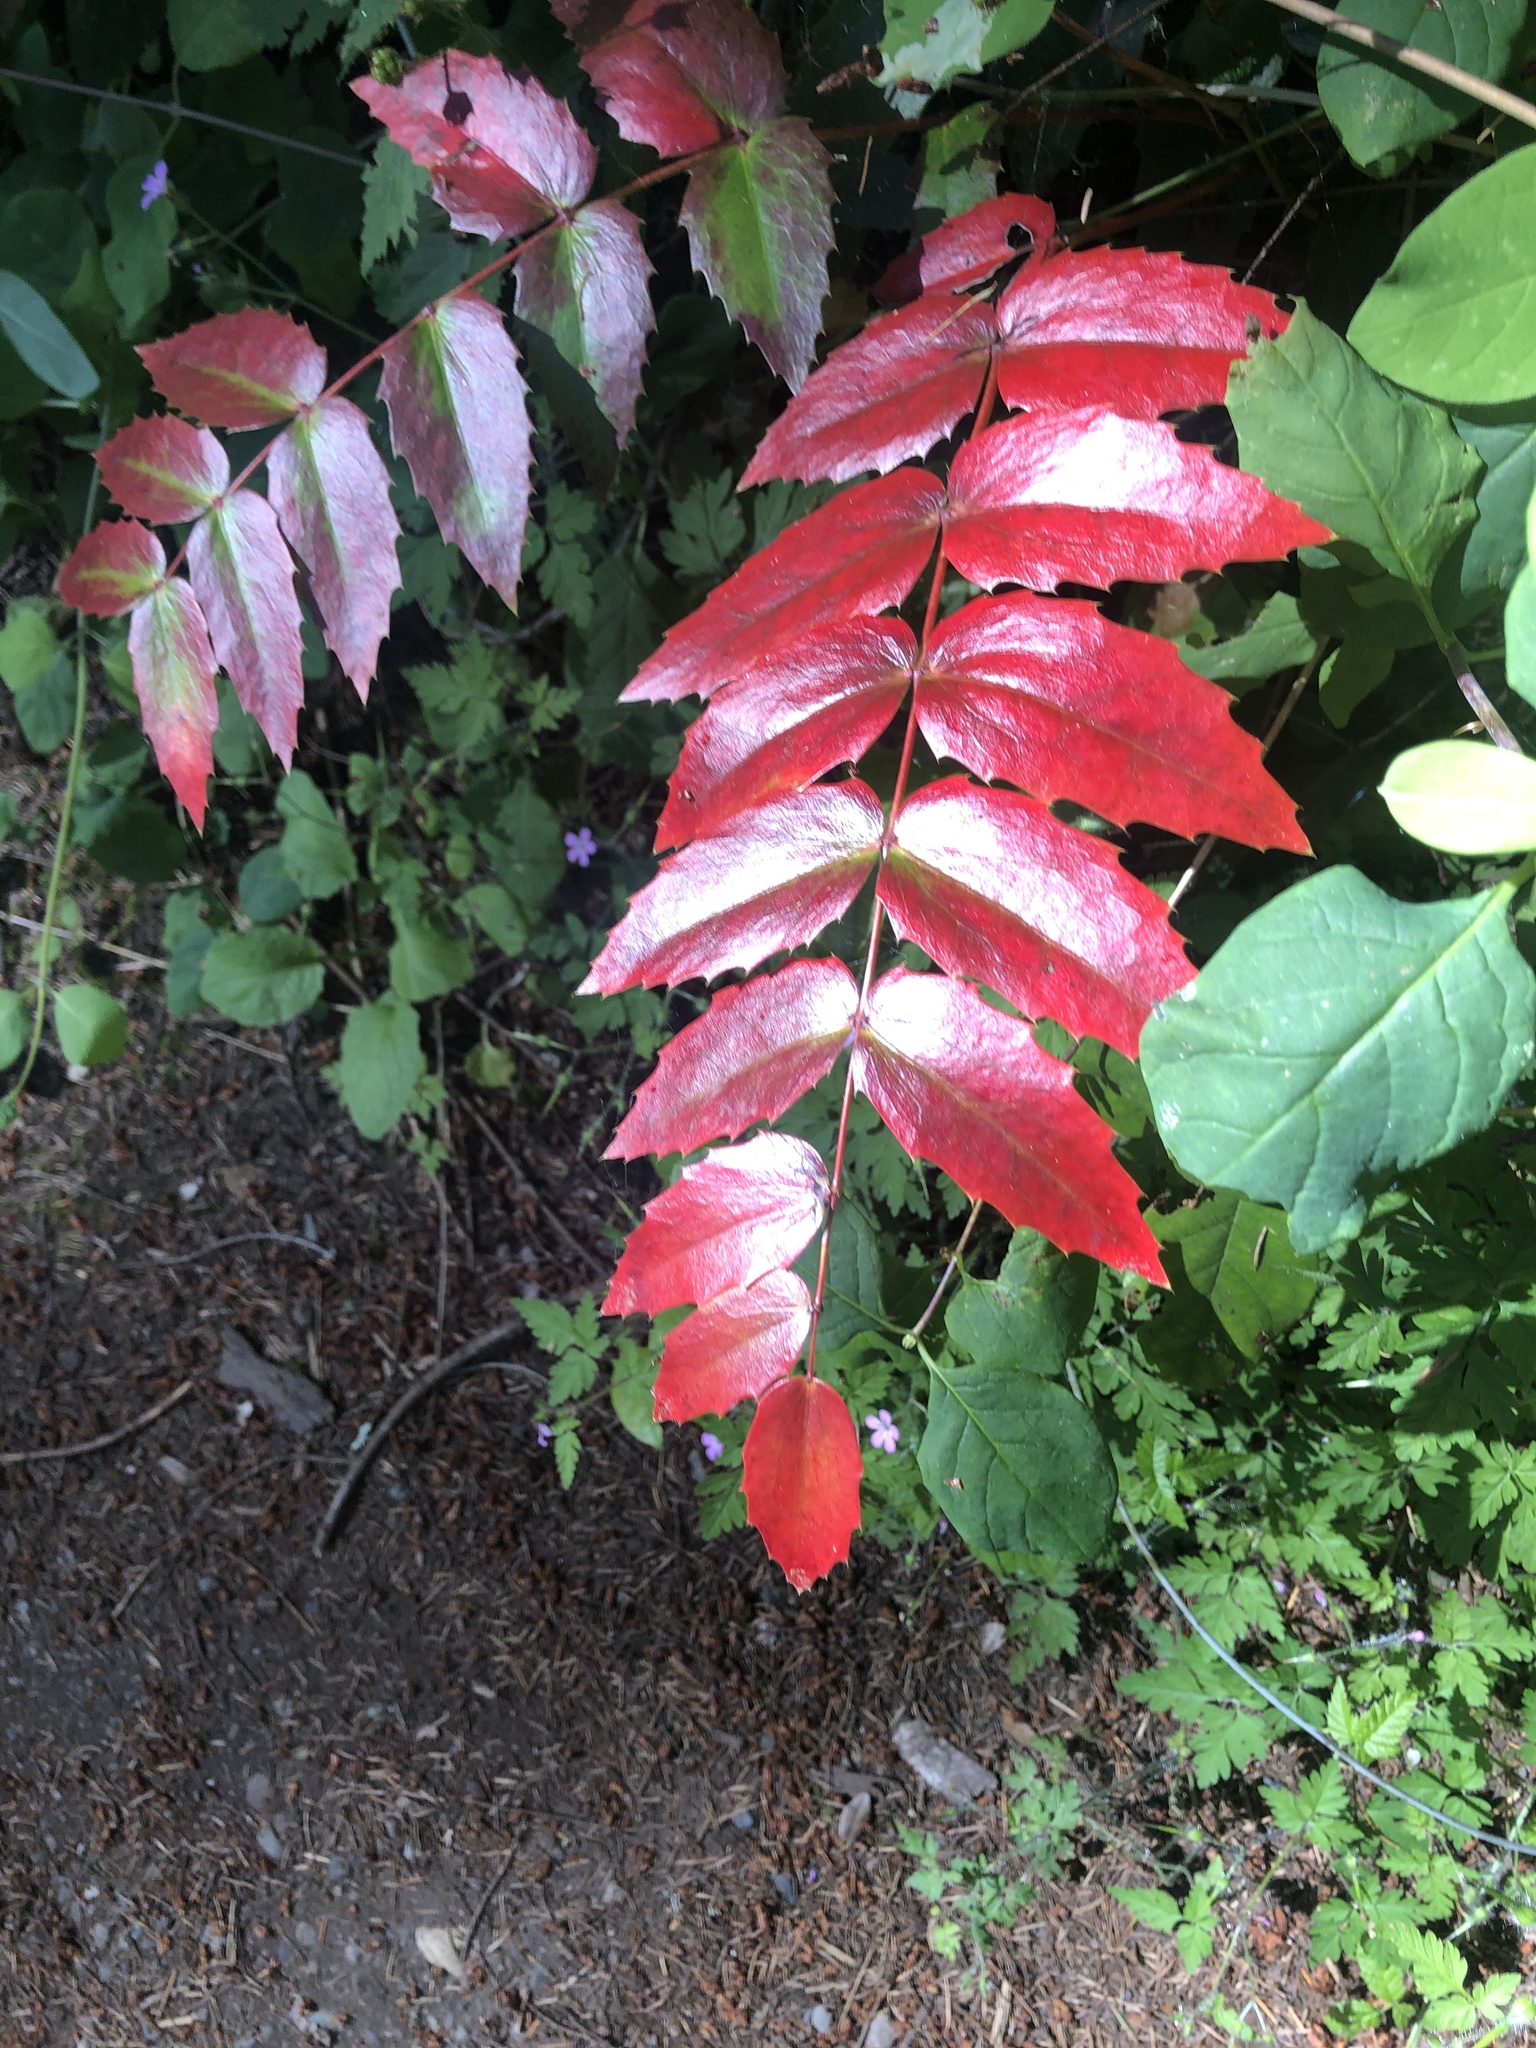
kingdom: Plantae
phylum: Tracheophyta
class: Magnoliopsida
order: Ranunculales
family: Berberidaceae
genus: Mahonia
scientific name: Mahonia nervosa
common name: Cascade oregon-grape
